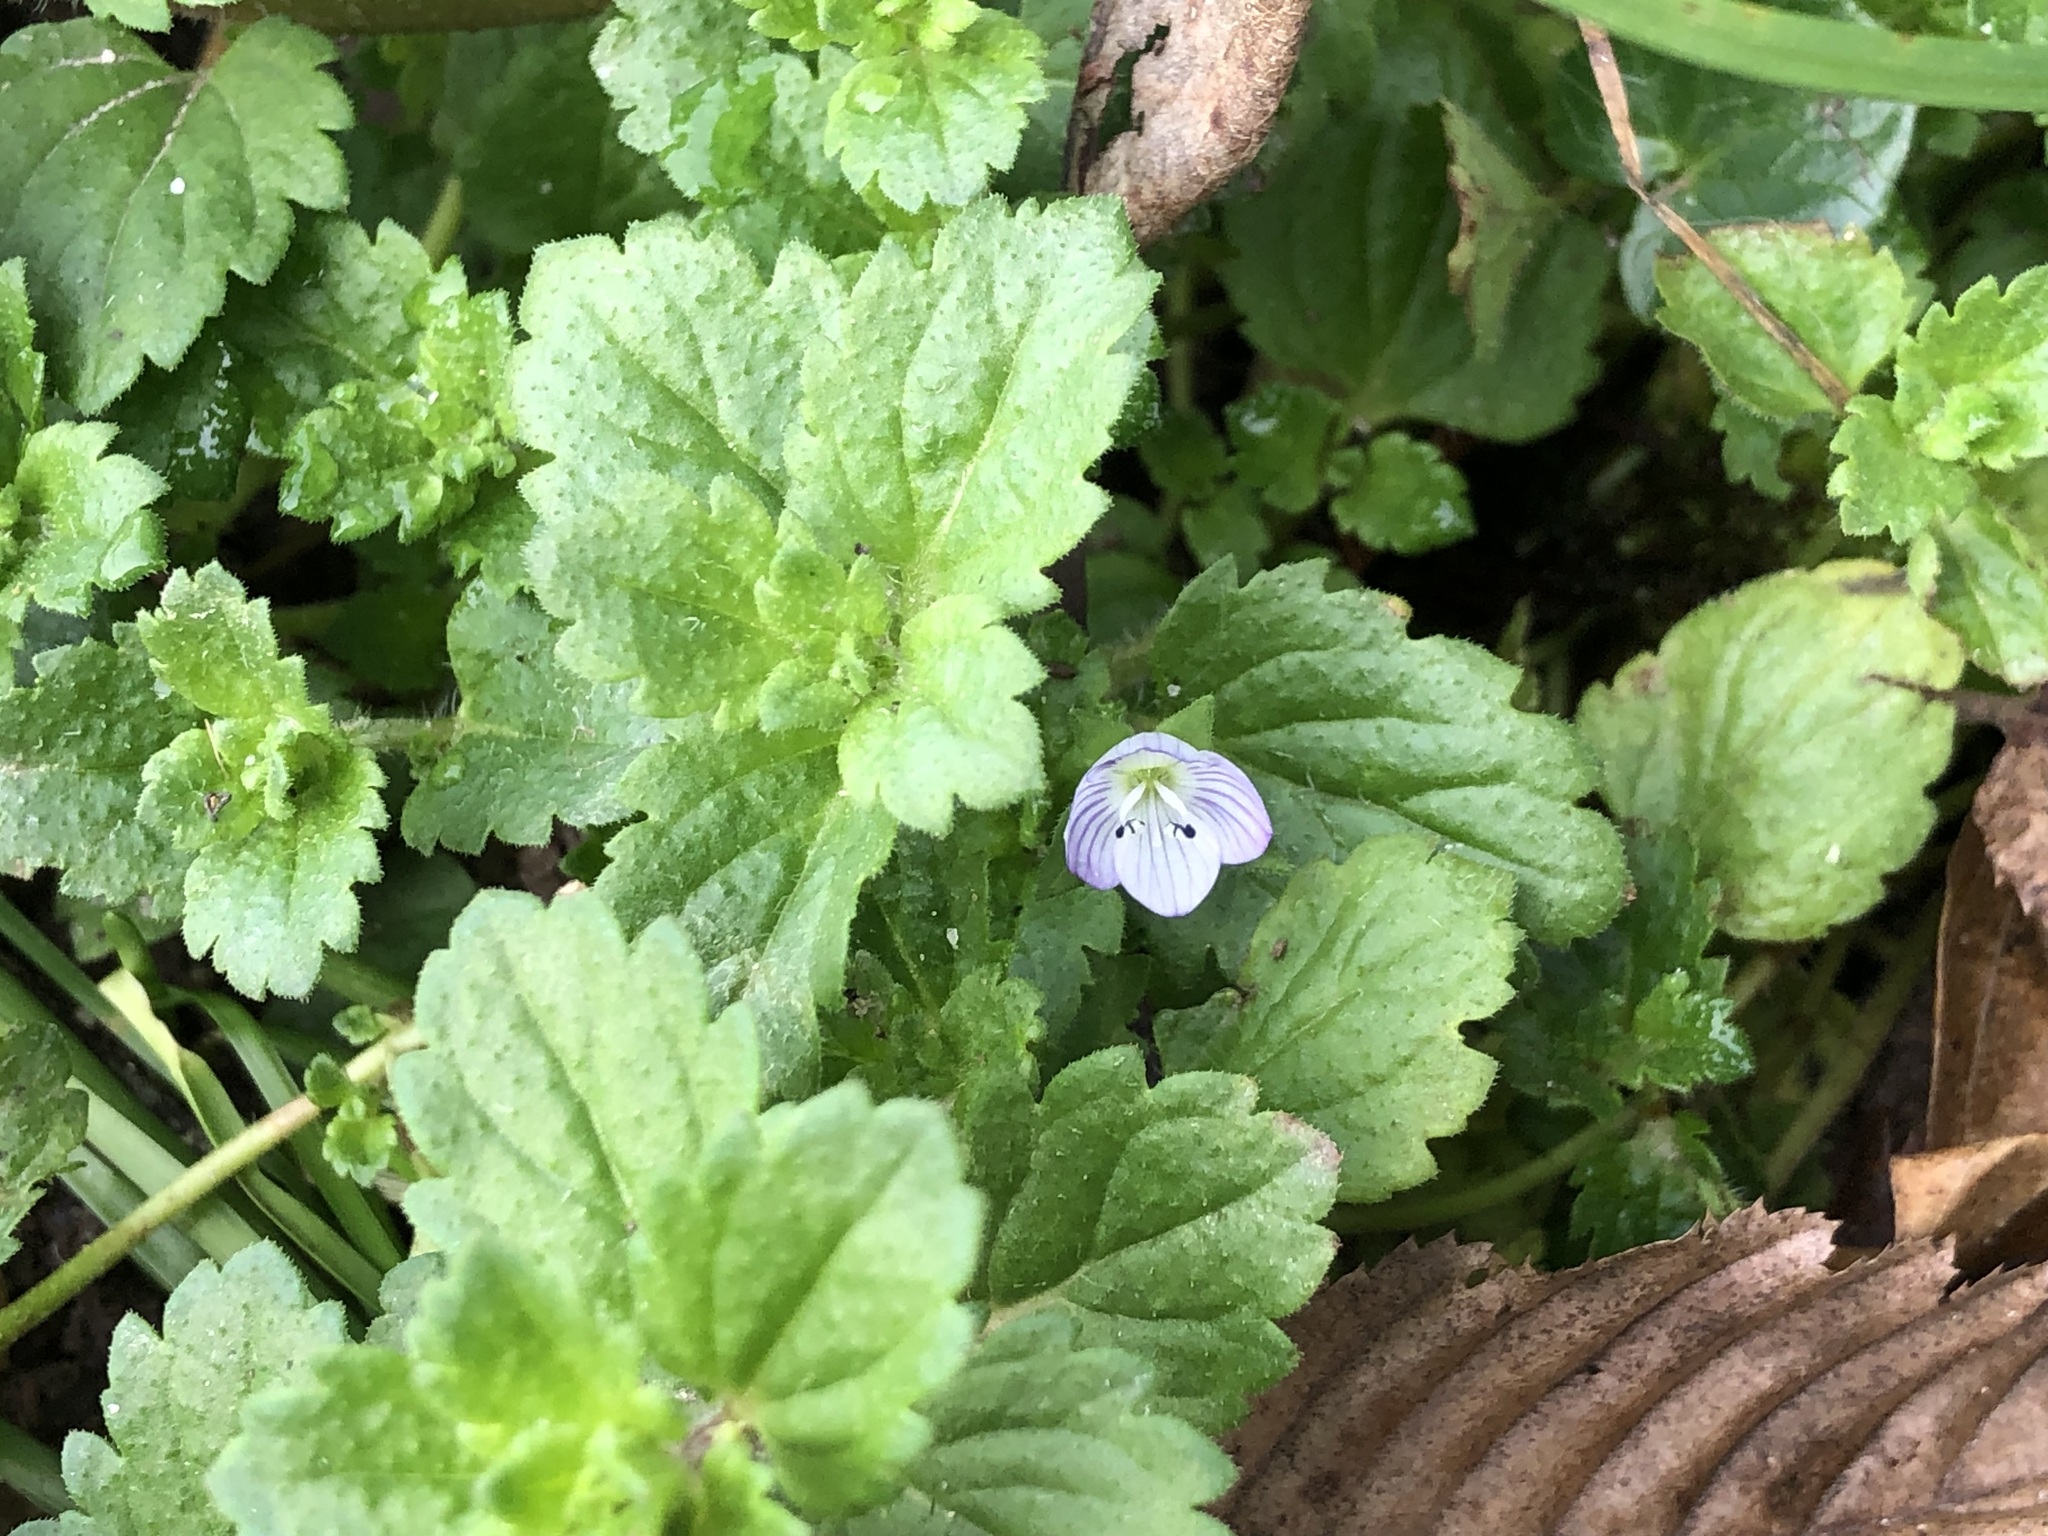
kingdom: Plantae
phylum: Tracheophyta
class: Magnoliopsida
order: Lamiales
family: Plantaginaceae
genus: Veronica
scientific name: Veronica persica
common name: Common field-speedwell
